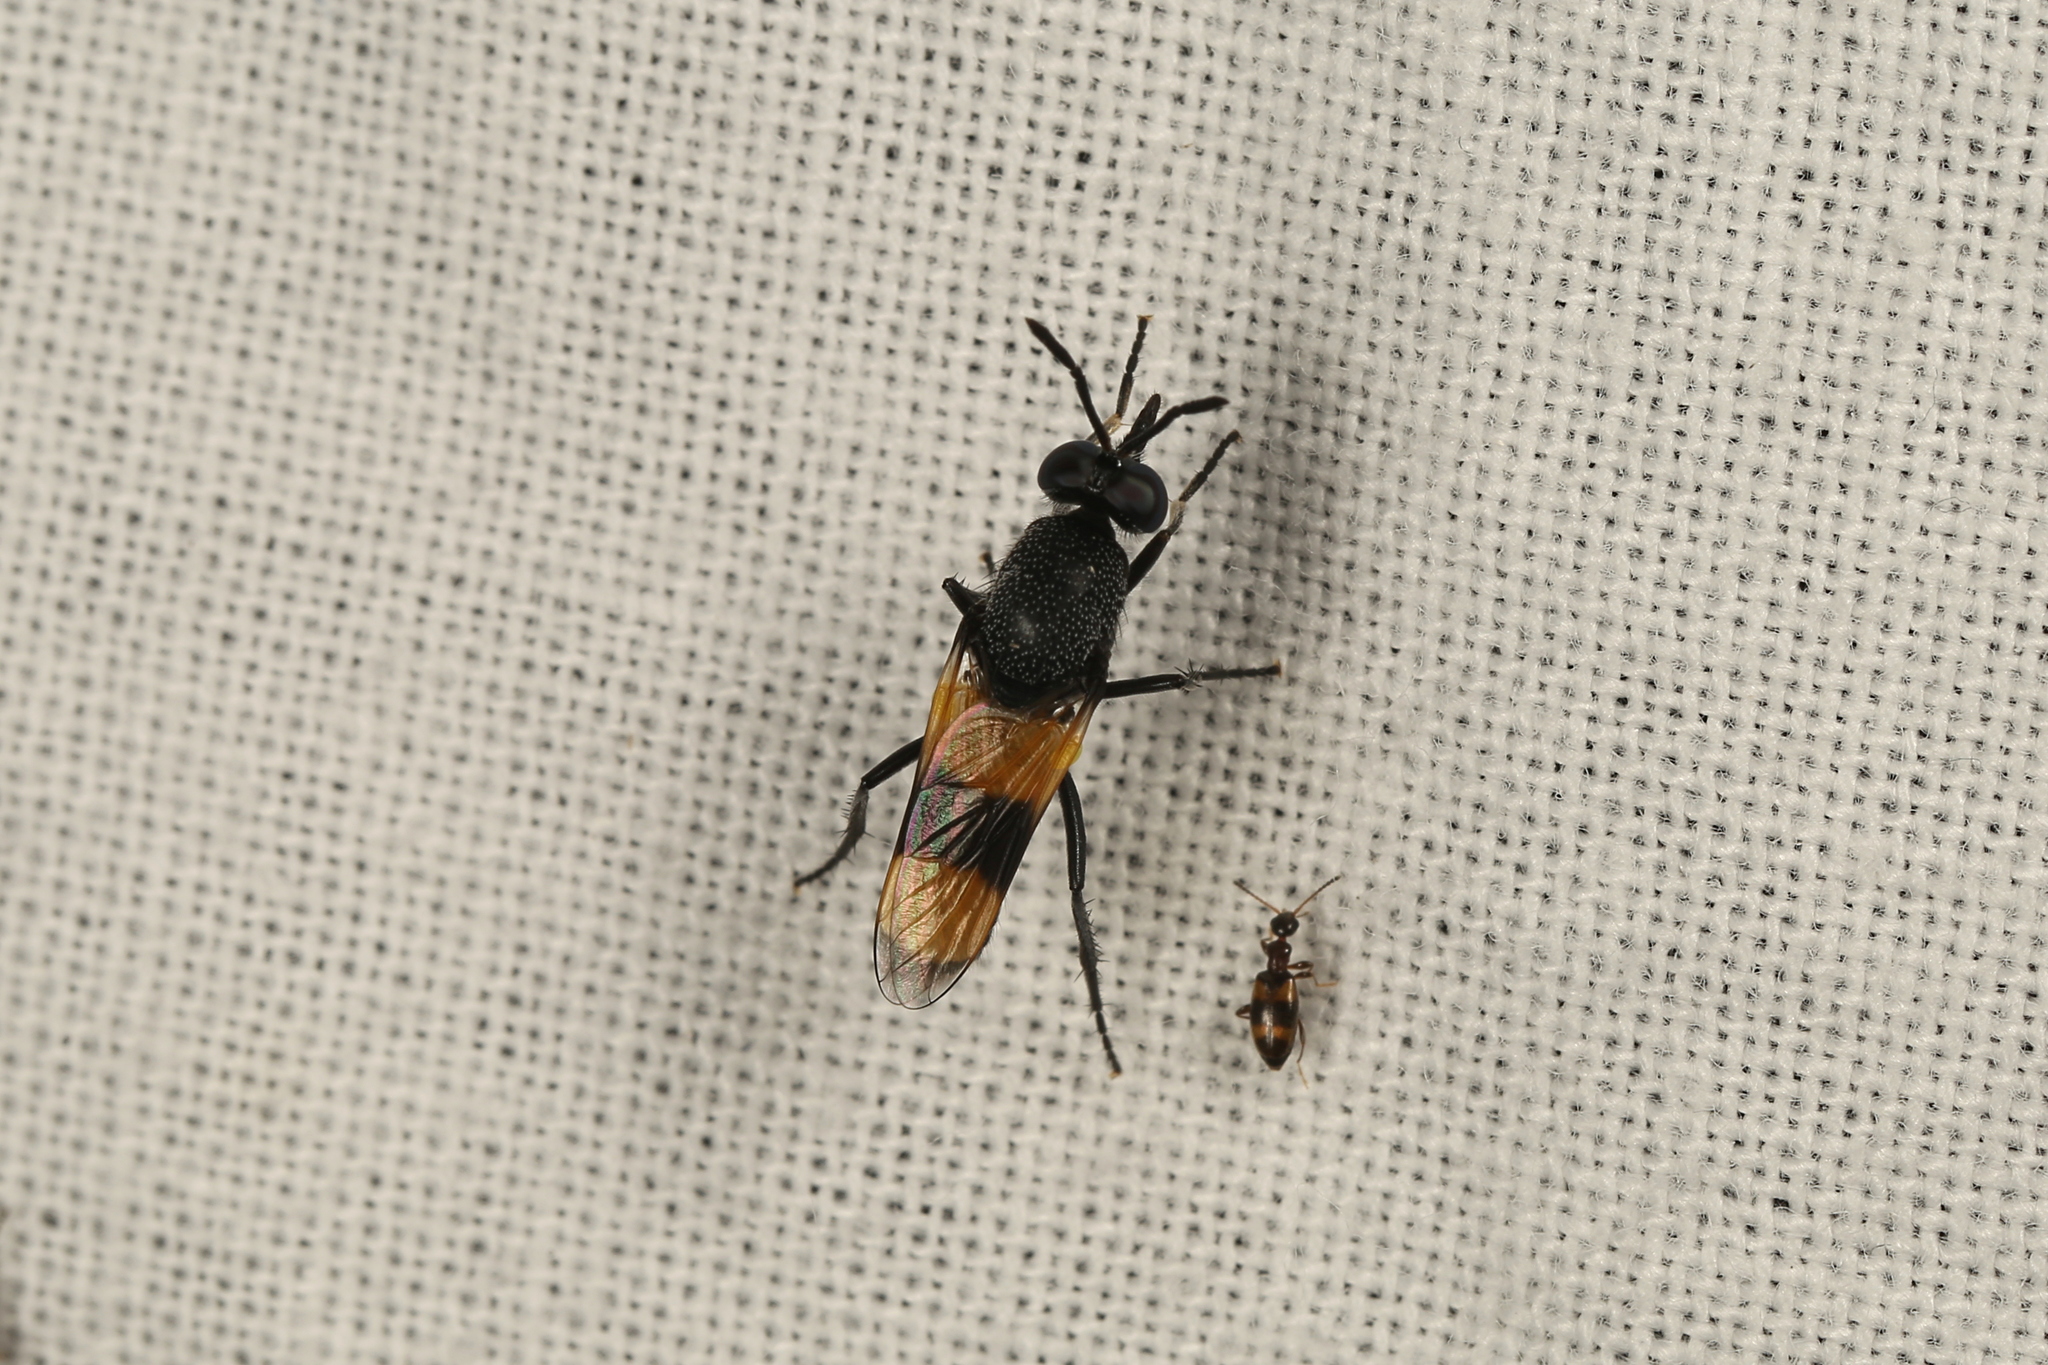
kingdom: Animalia
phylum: Arthropoda
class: Insecta
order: Diptera
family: Therevidae
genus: Agapophytus
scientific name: Agapophytus aterrimus
